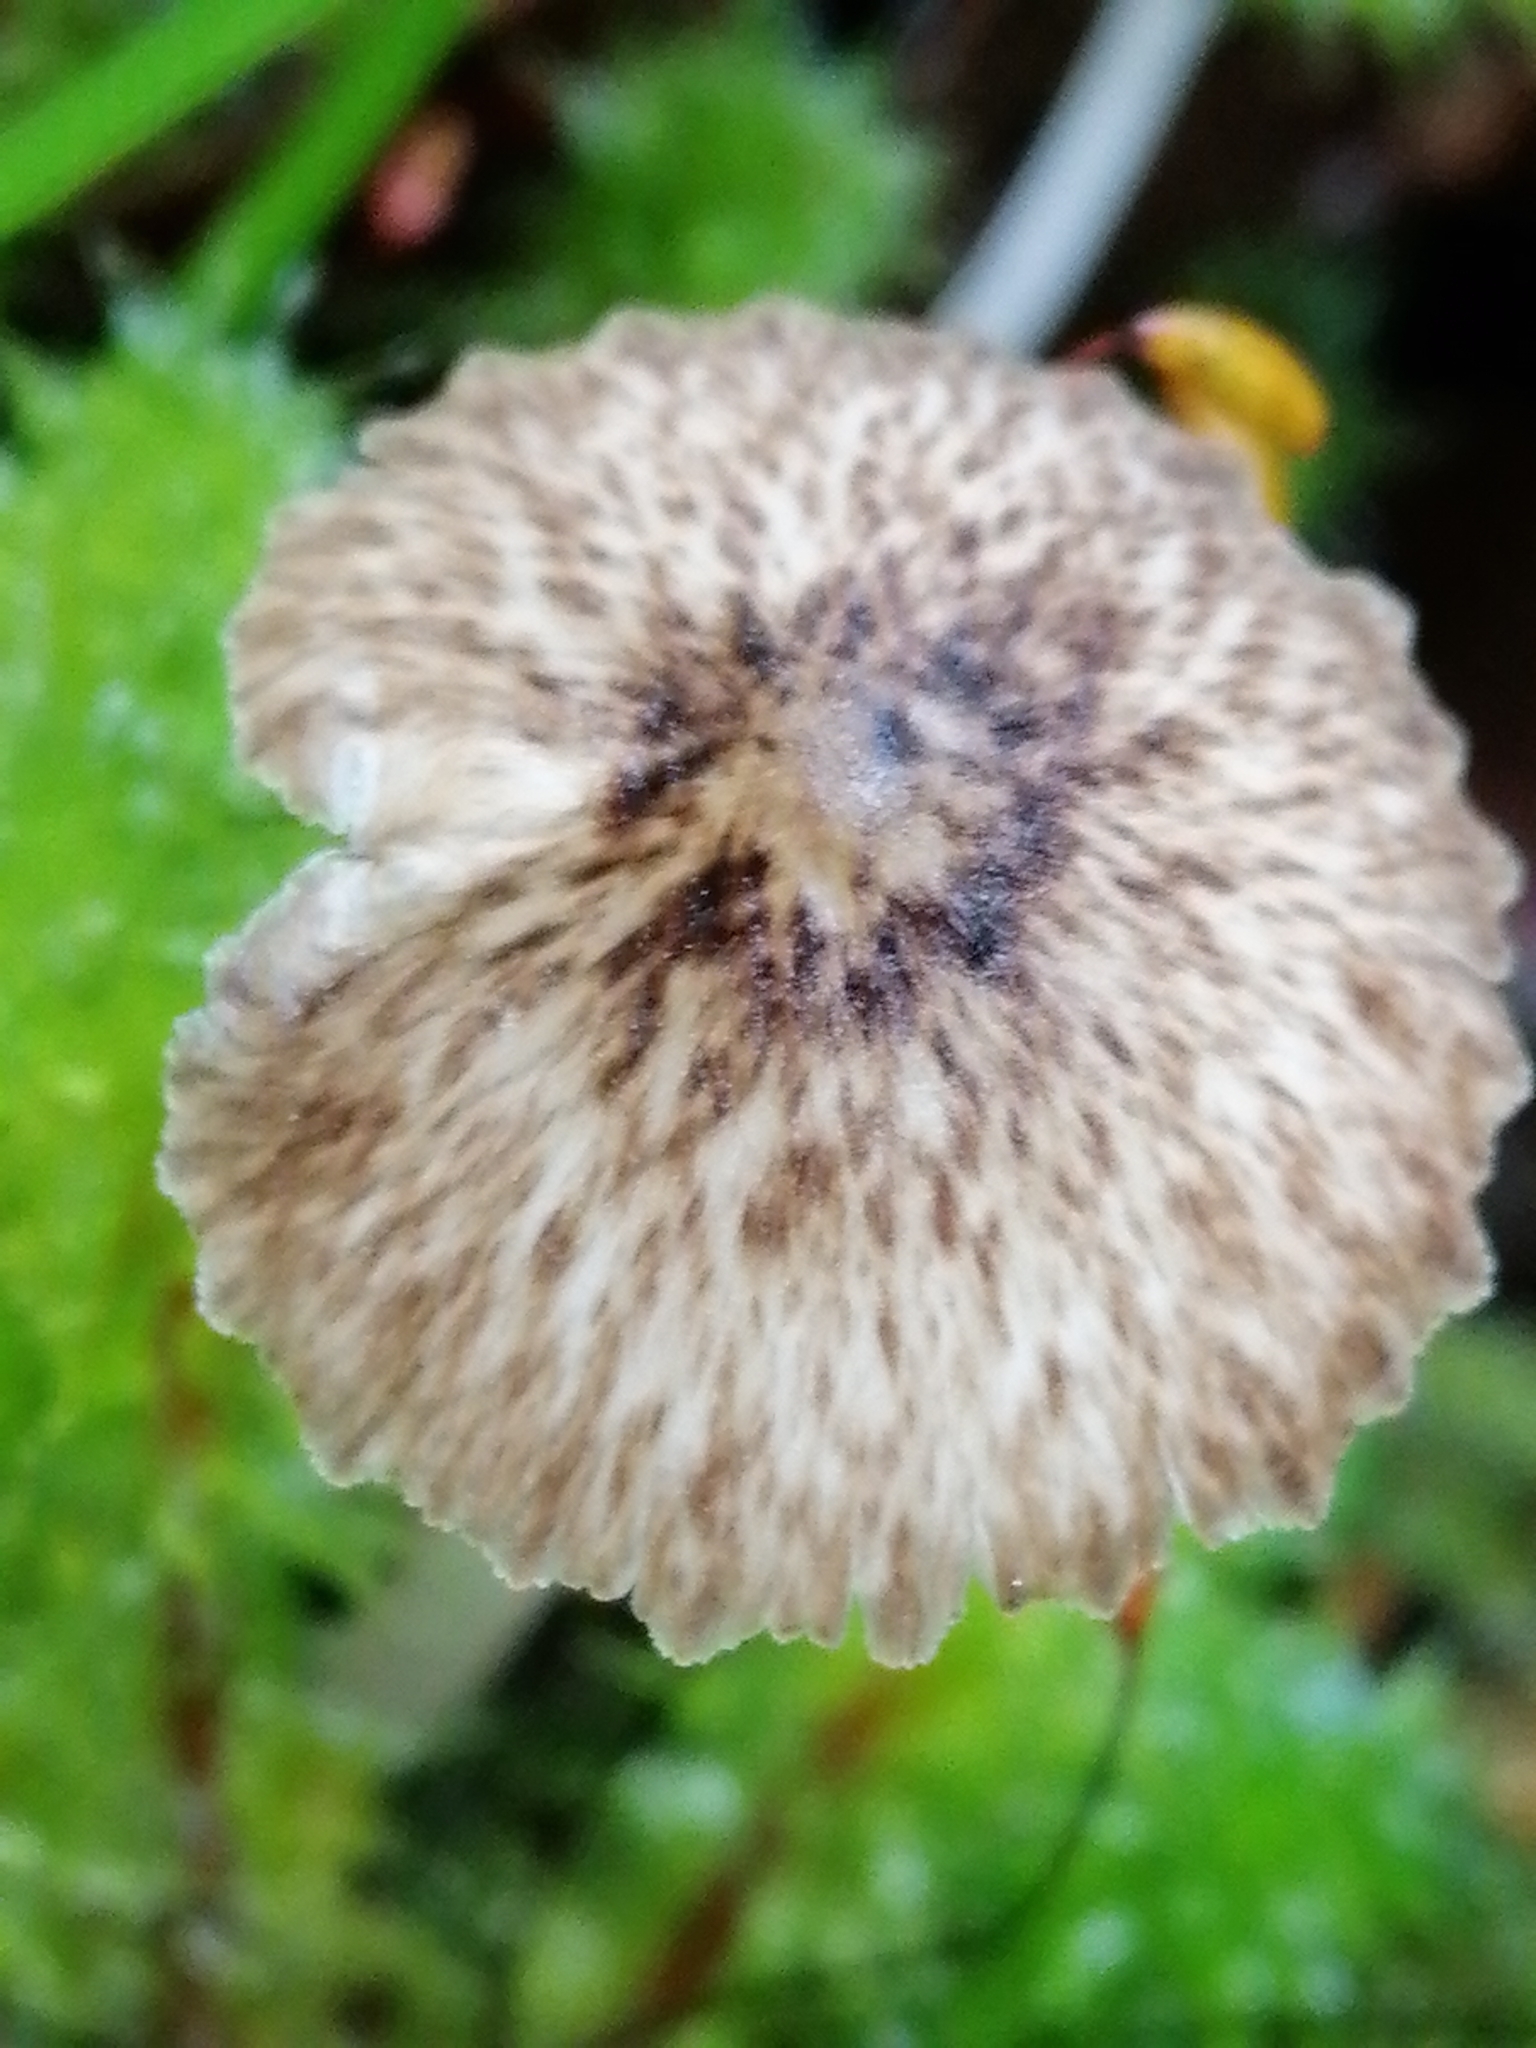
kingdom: Fungi
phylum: Basidiomycota
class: Agaricomycetes
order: Agaricales
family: Porotheleaceae
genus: Pseudohydropus
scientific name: Pseudohydropus parafunebris
